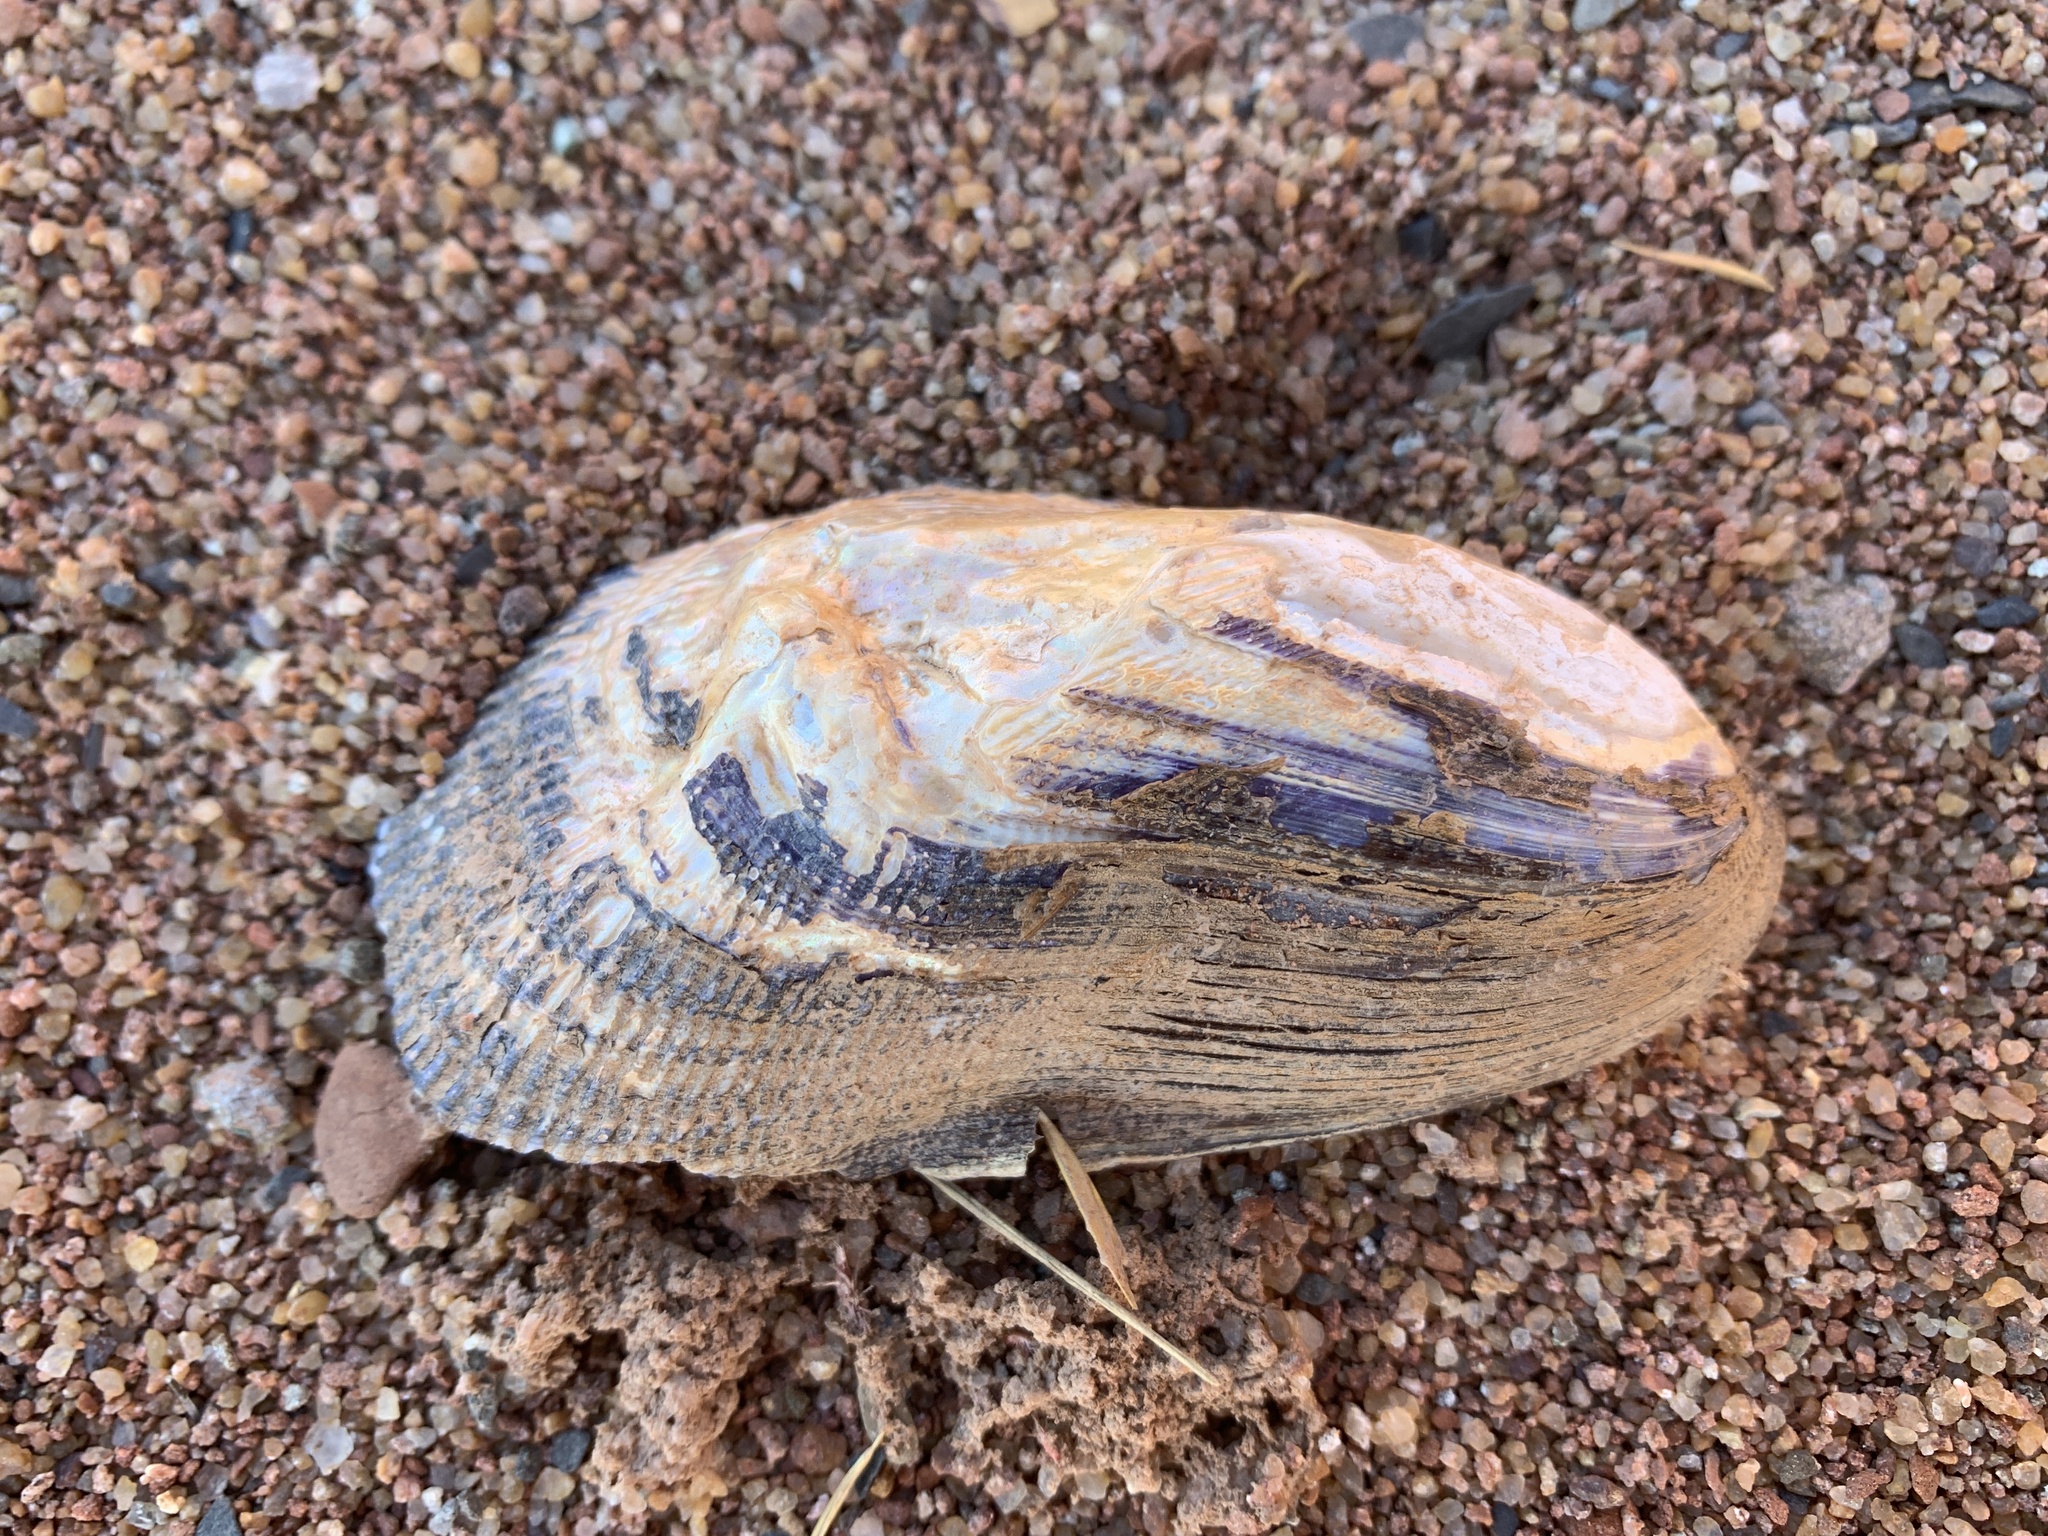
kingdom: Animalia
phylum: Mollusca
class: Bivalvia
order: Mytilida
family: Mytilidae
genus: Geukensia
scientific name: Geukensia demissa
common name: Ribbed mussel
